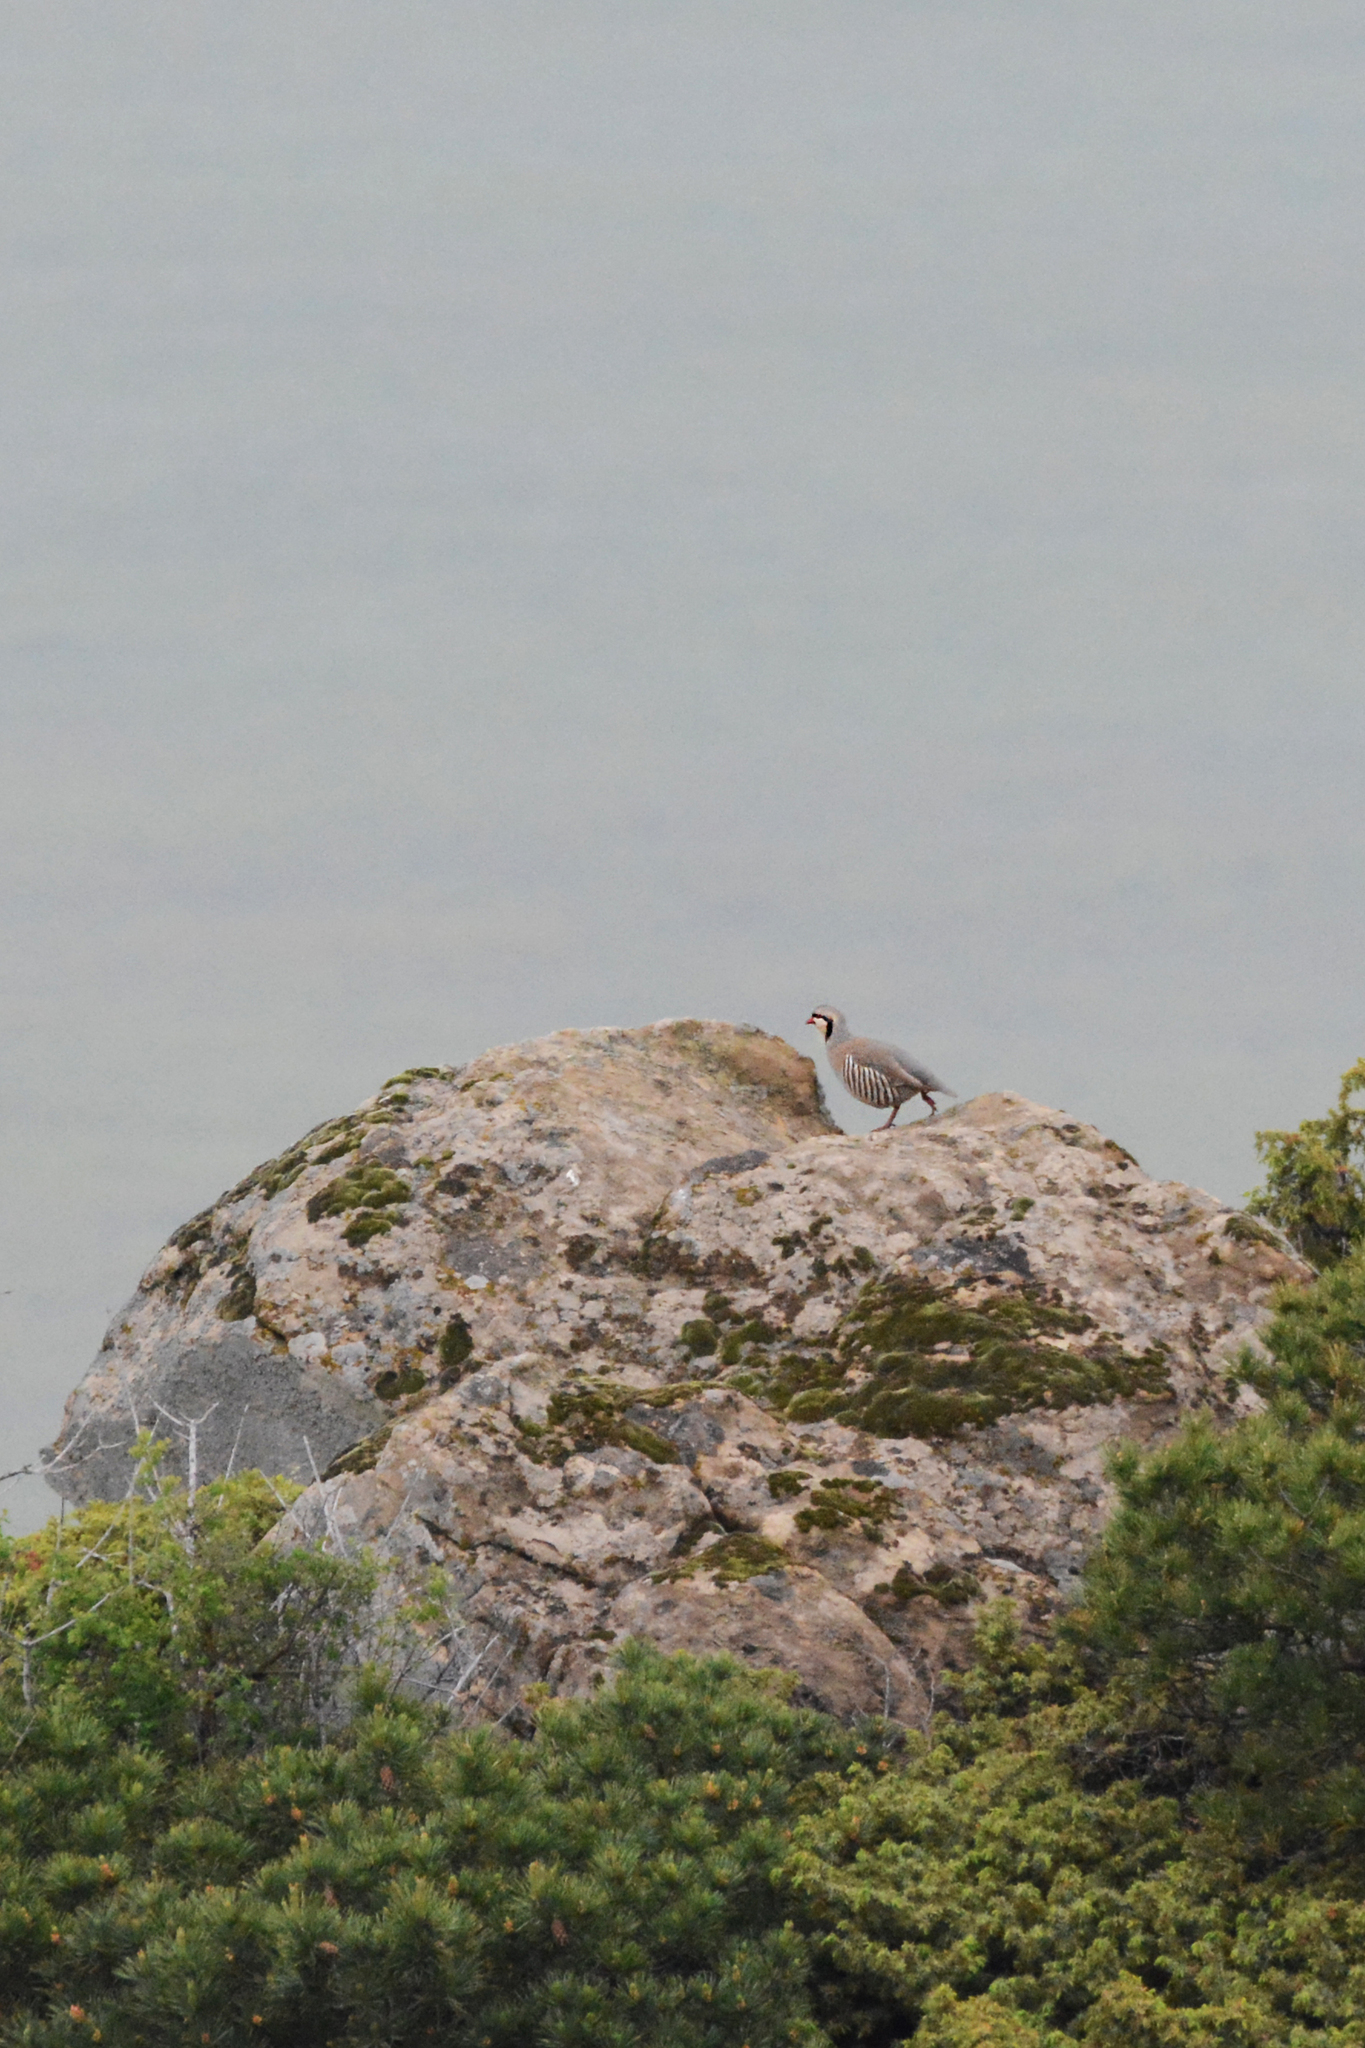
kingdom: Animalia
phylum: Chordata
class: Aves
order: Galliformes
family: Phasianidae
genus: Alectoris
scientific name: Alectoris chukar
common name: Chukar
